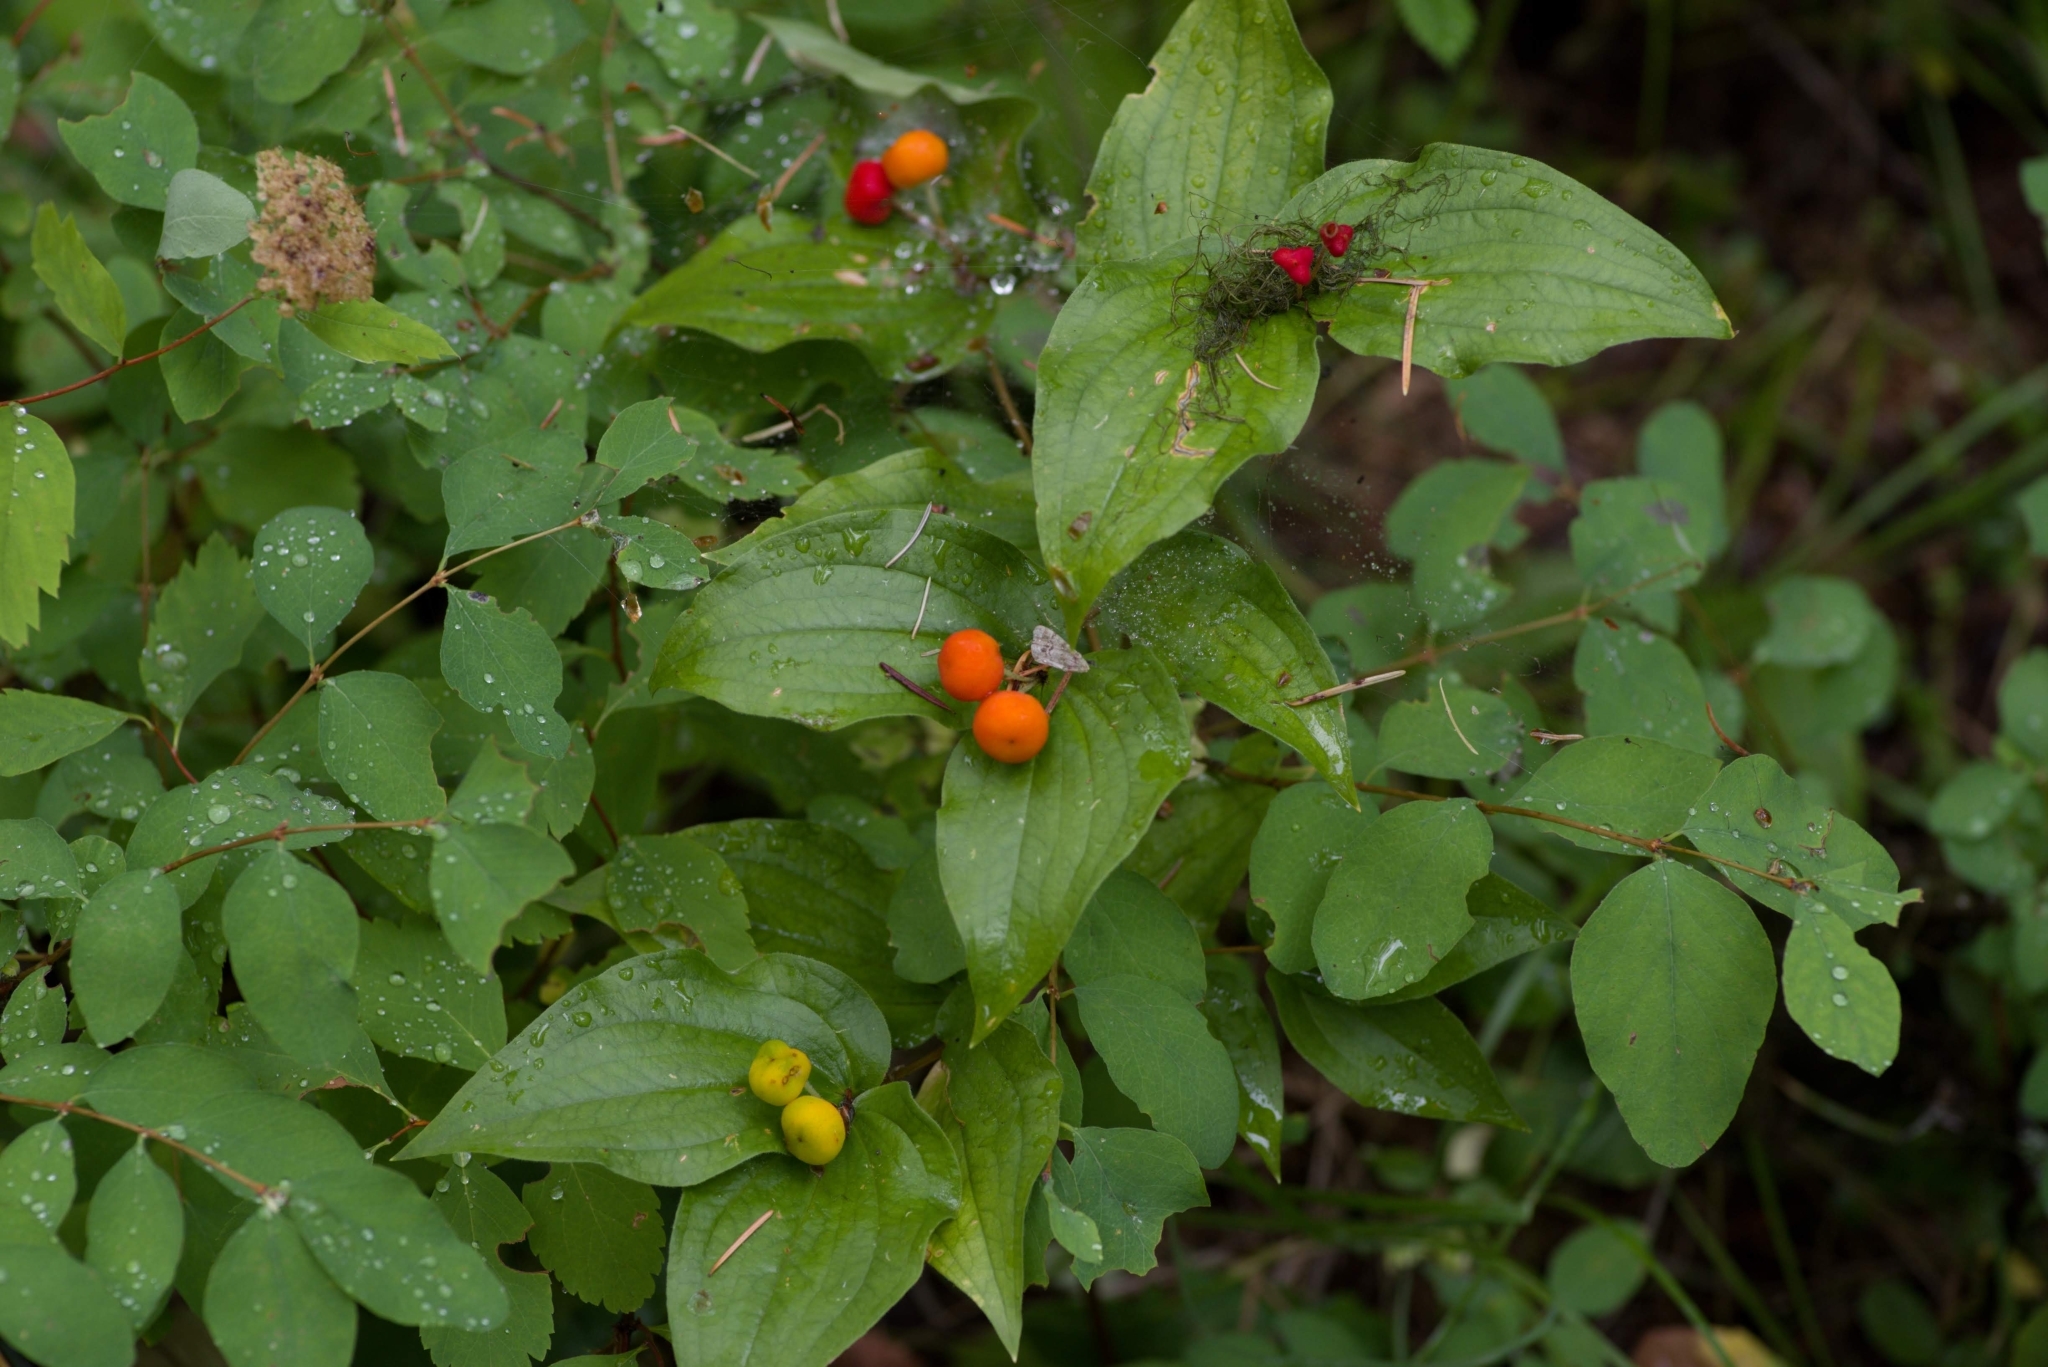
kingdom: Plantae
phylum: Tracheophyta
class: Liliopsida
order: Liliales
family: Liliaceae
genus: Prosartes
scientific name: Prosartes trachycarpa
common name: Rough-fruit fairy-bells
